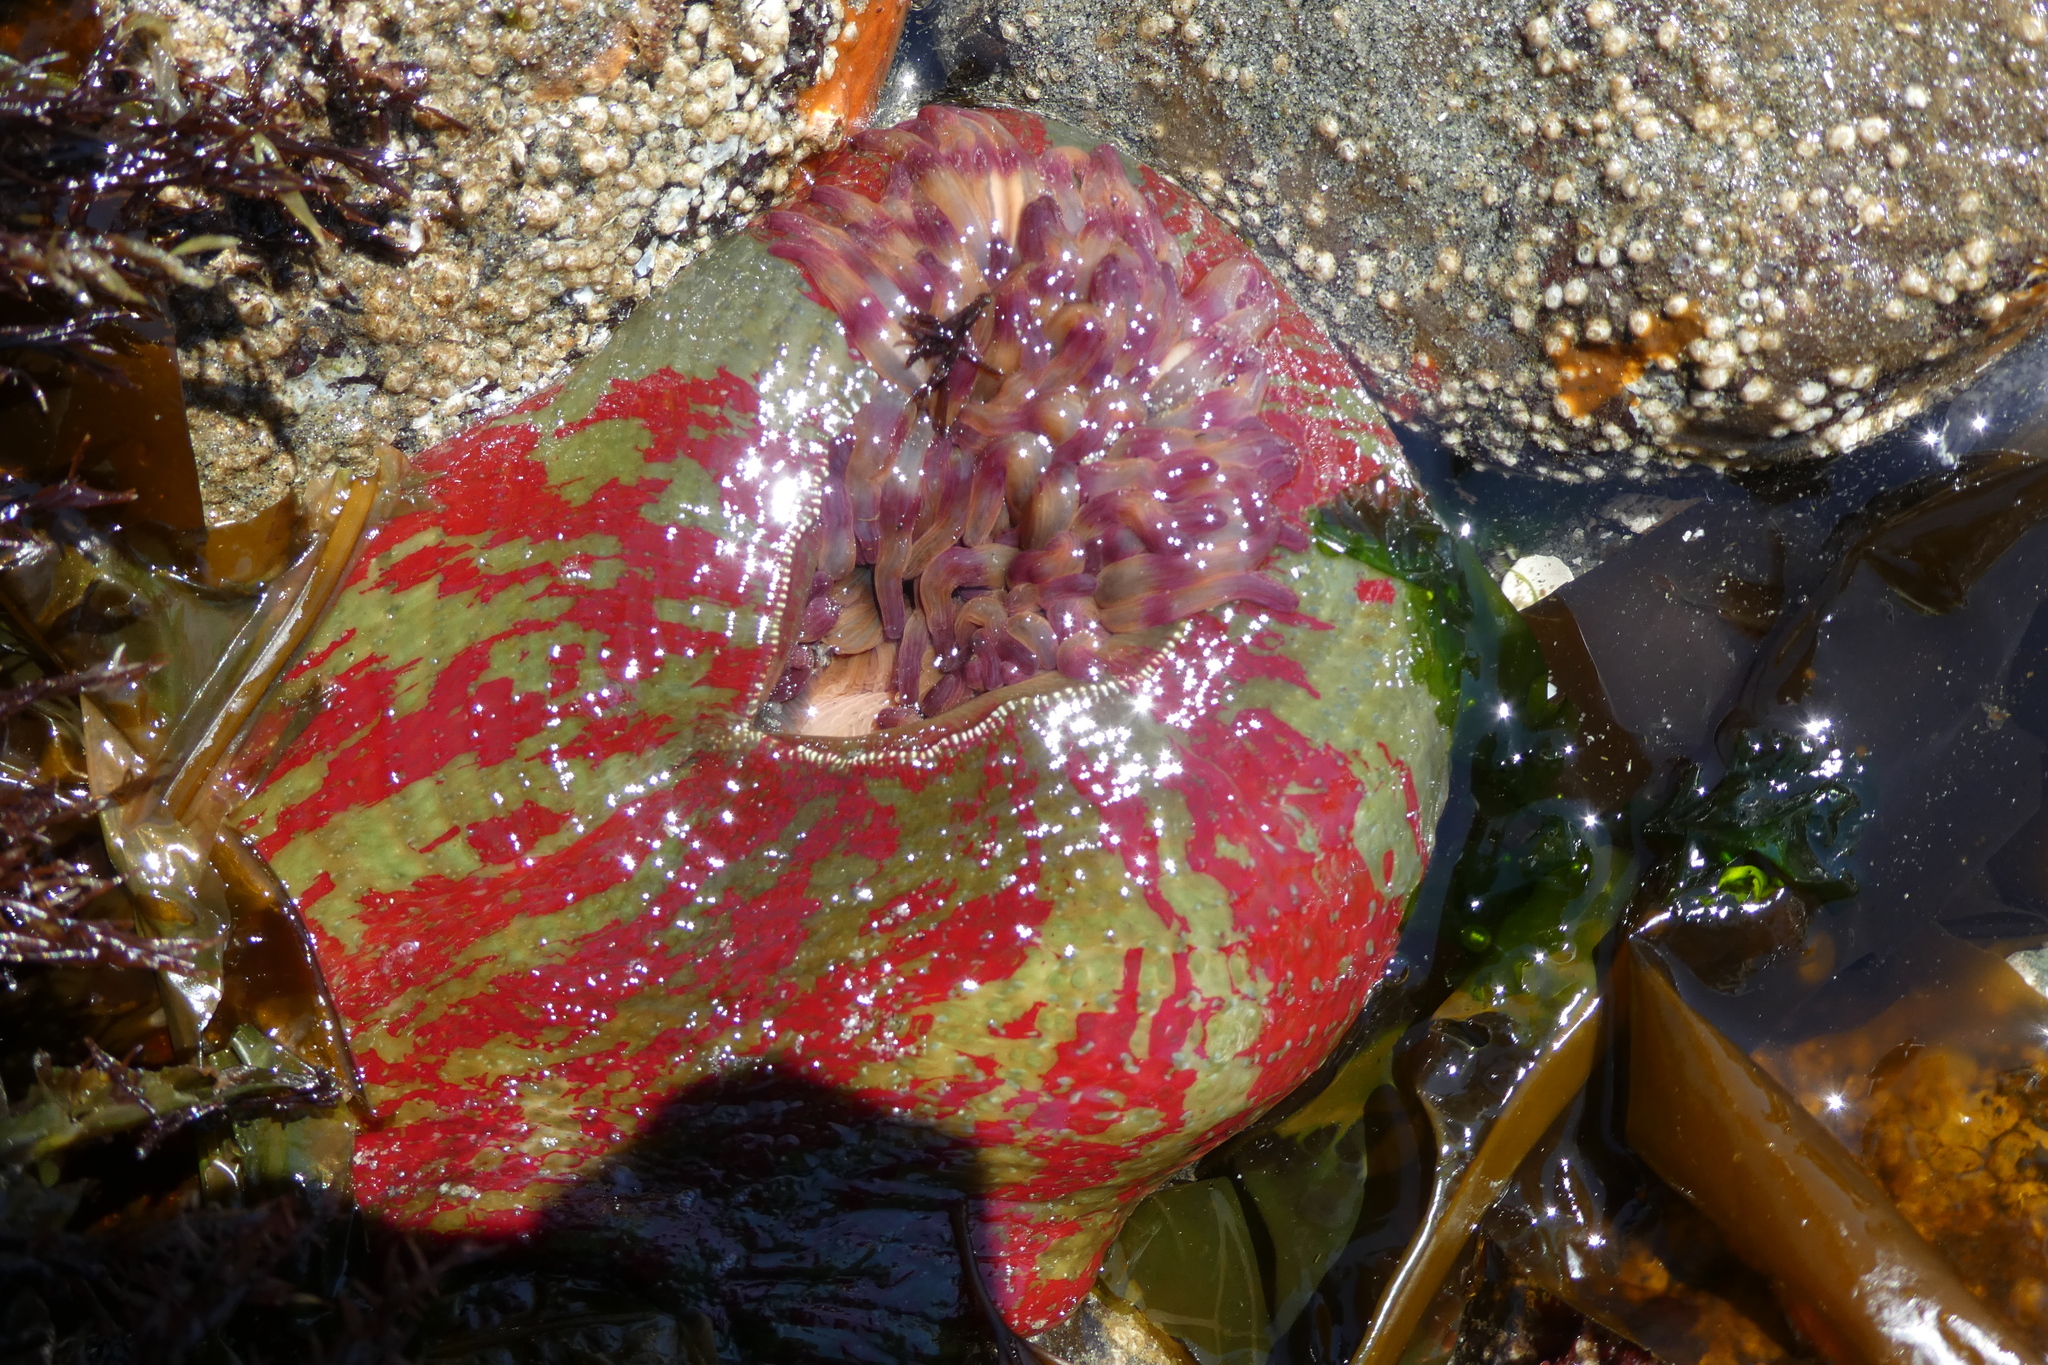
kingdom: Animalia
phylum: Cnidaria
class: Anthozoa
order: Actiniaria
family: Actiniidae
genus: Urticina
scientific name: Urticina grebelnyi
